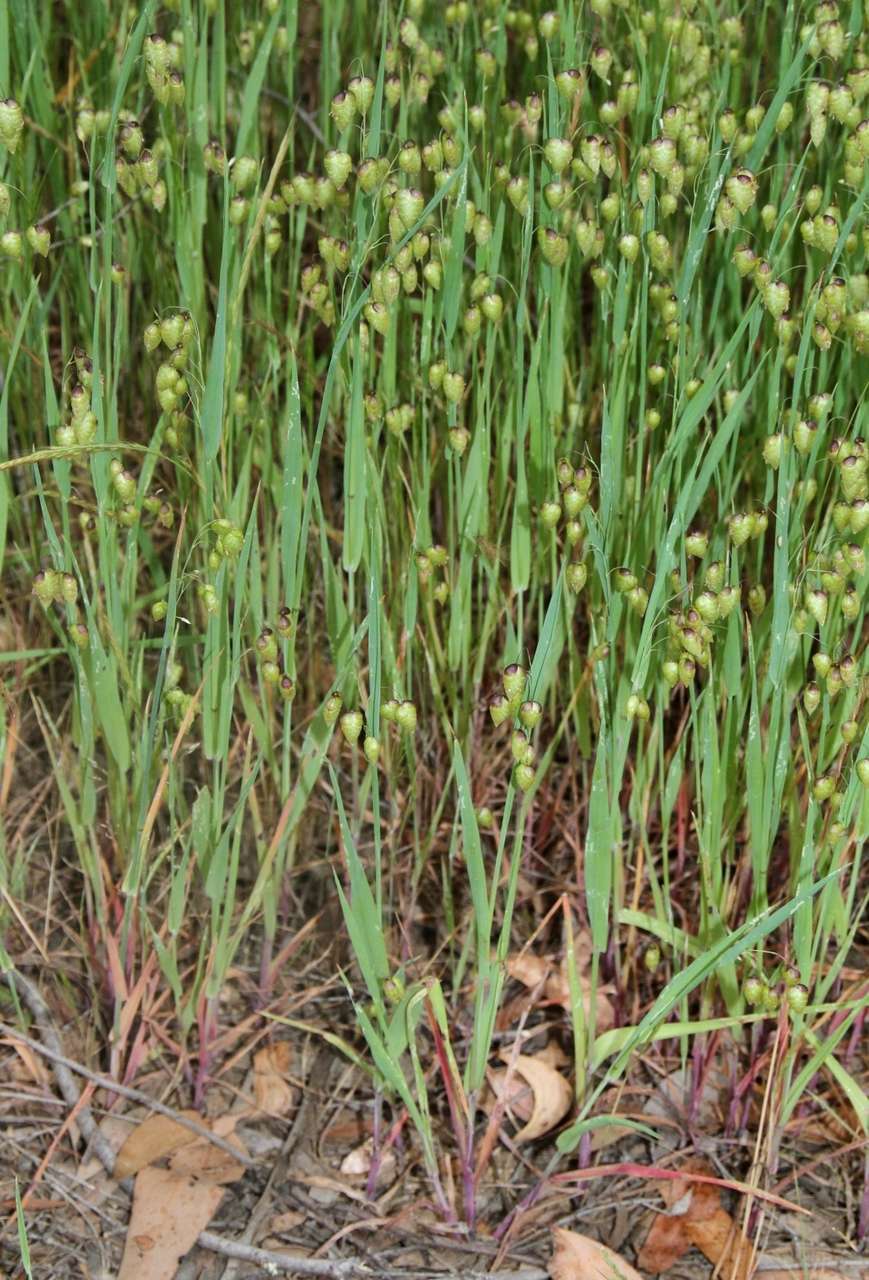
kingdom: Plantae
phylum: Tracheophyta
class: Liliopsida
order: Poales
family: Poaceae
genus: Briza
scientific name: Briza maxima
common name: Big quakinggrass
